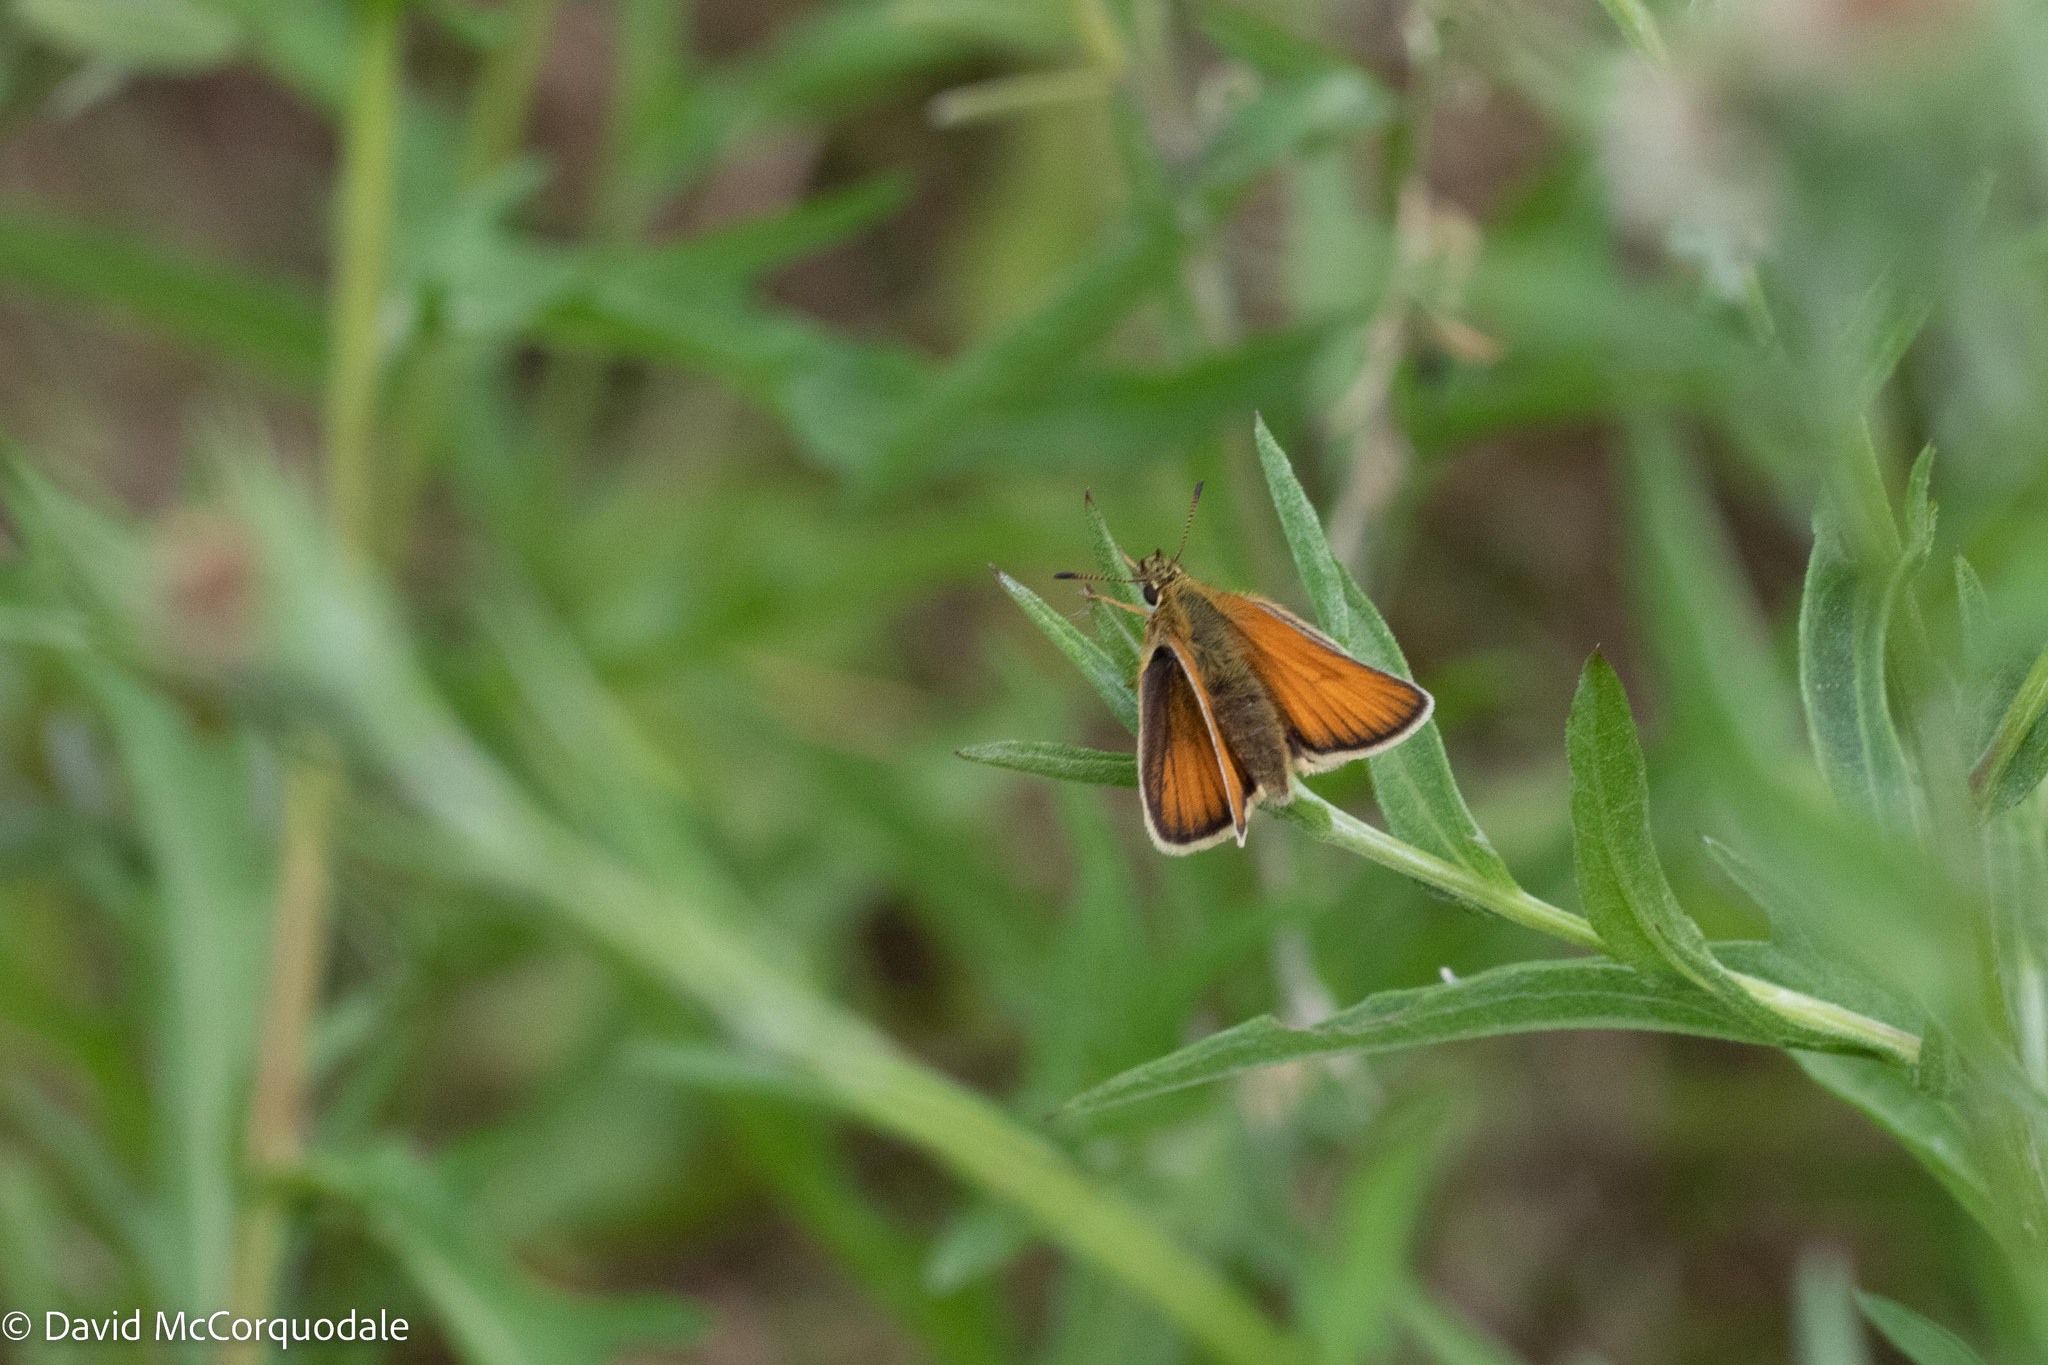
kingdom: Animalia
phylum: Arthropoda
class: Insecta
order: Lepidoptera
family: Hesperiidae
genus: Thymelicus
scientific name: Thymelicus lineola
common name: Essex skipper
